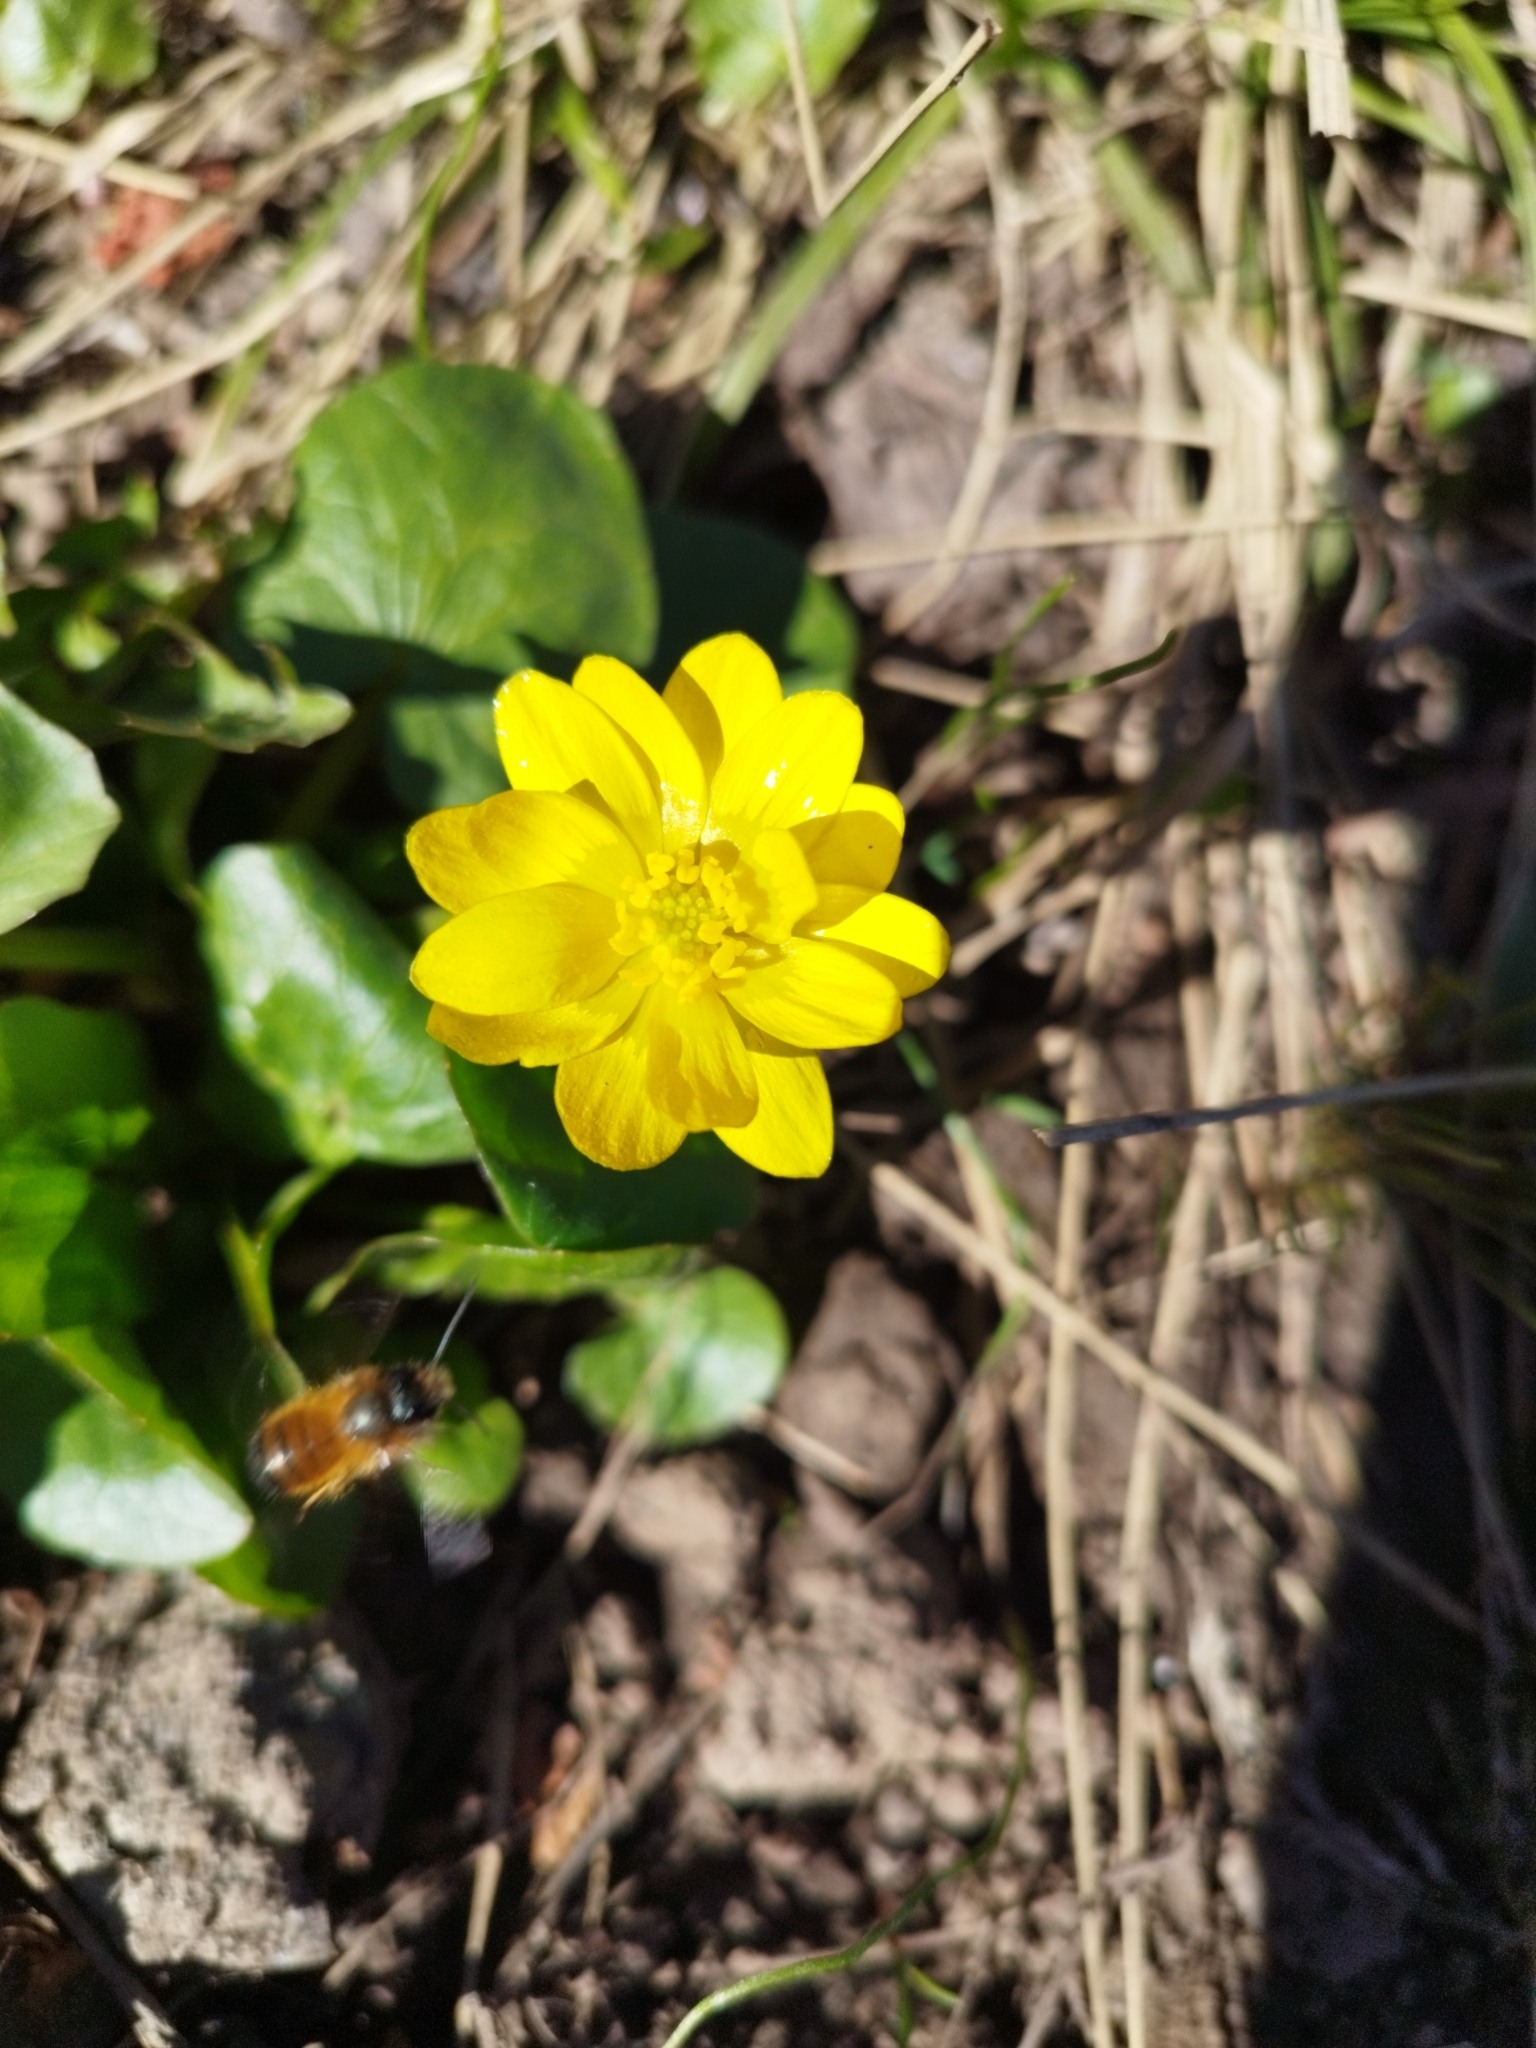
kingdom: Plantae
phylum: Tracheophyta
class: Magnoliopsida
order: Ranunculales
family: Ranunculaceae
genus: Ficaria
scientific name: Ficaria verna
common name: Lesser celandine
